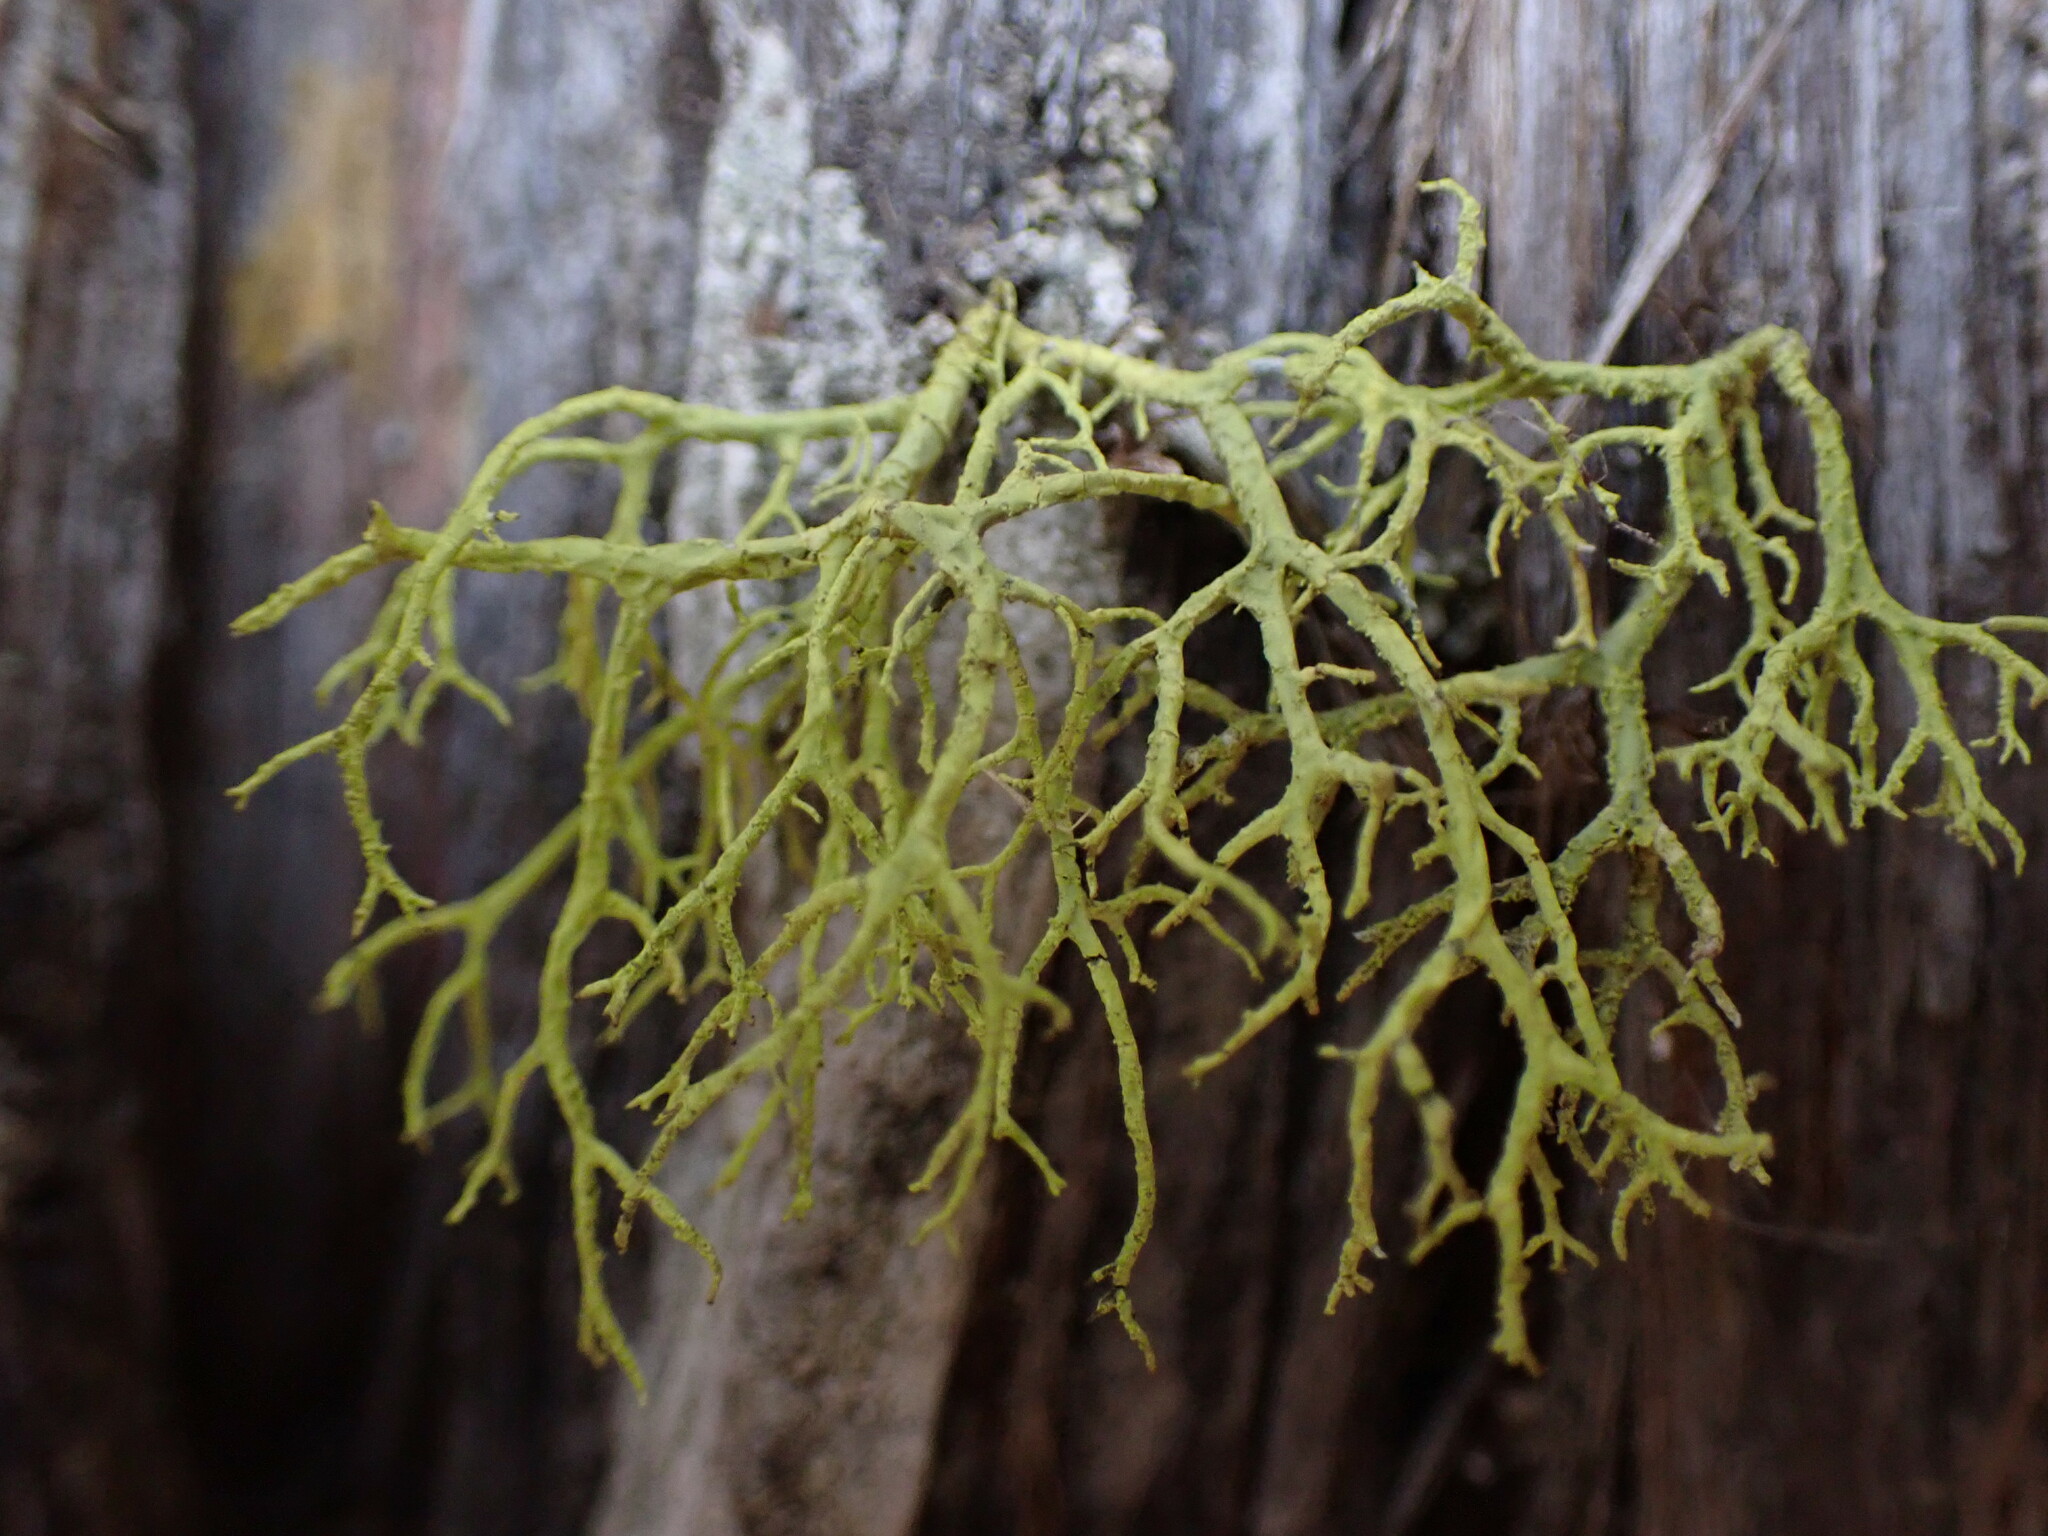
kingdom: Fungi
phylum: Ascomycota
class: Lecanoromycetes
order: Lecanorales
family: Parmeliaceae
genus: Letharia
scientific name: Letharia vulpina
